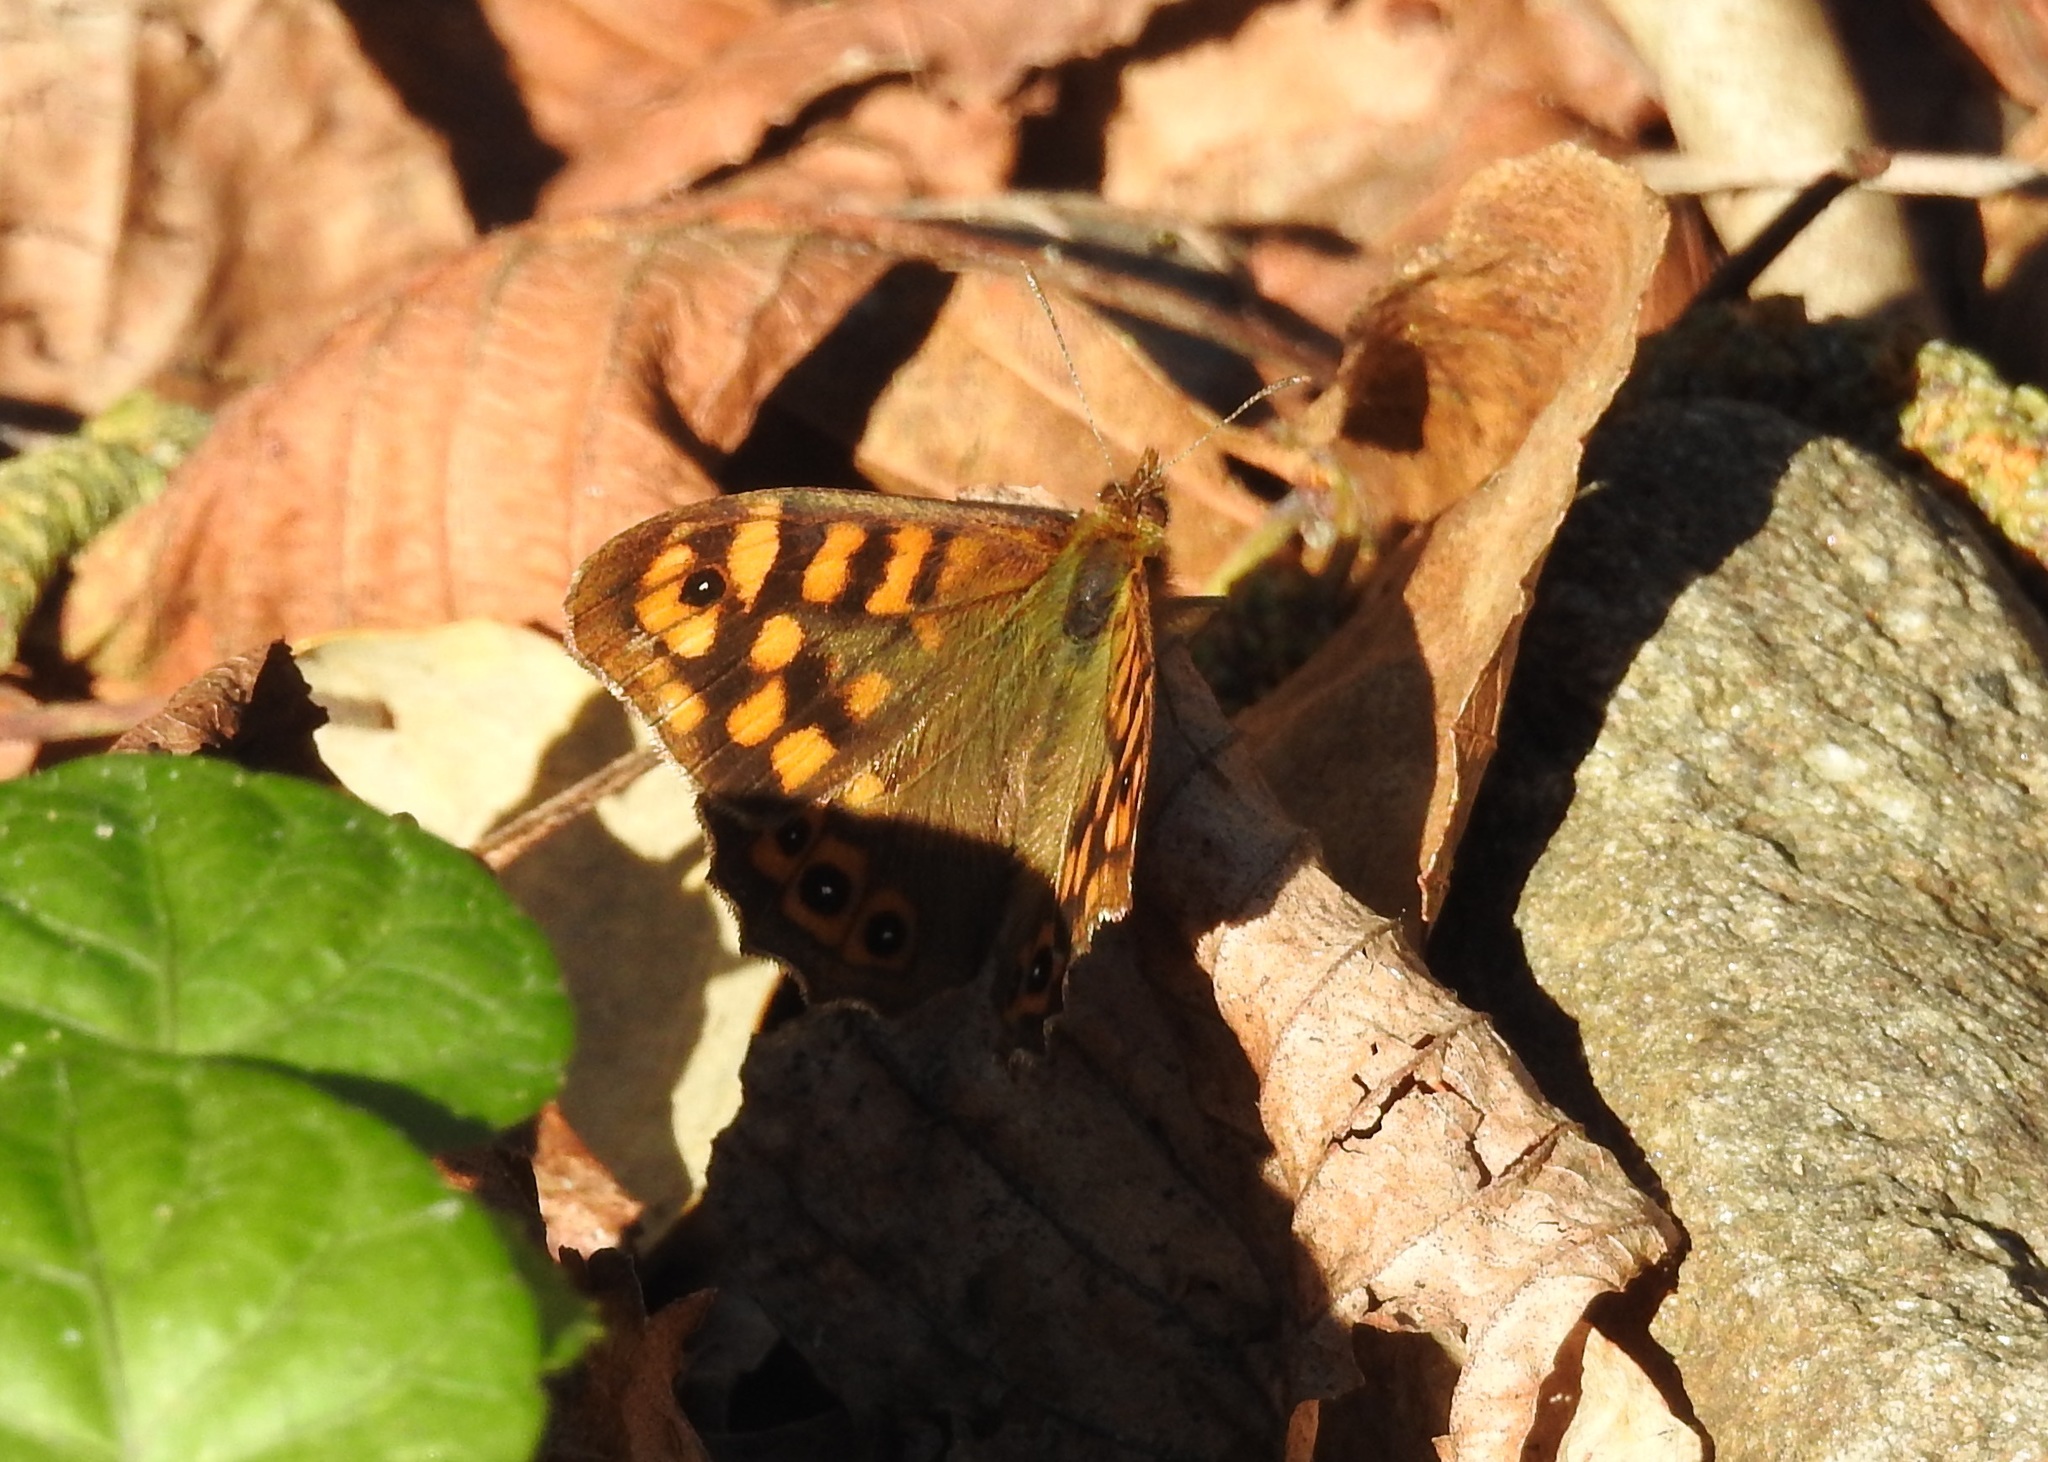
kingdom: Animalia
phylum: Arthropoda
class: Insecta
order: Lepidoptera
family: Nymphalidae
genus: Pararge
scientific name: Pararge aegeria
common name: Speckled wood
